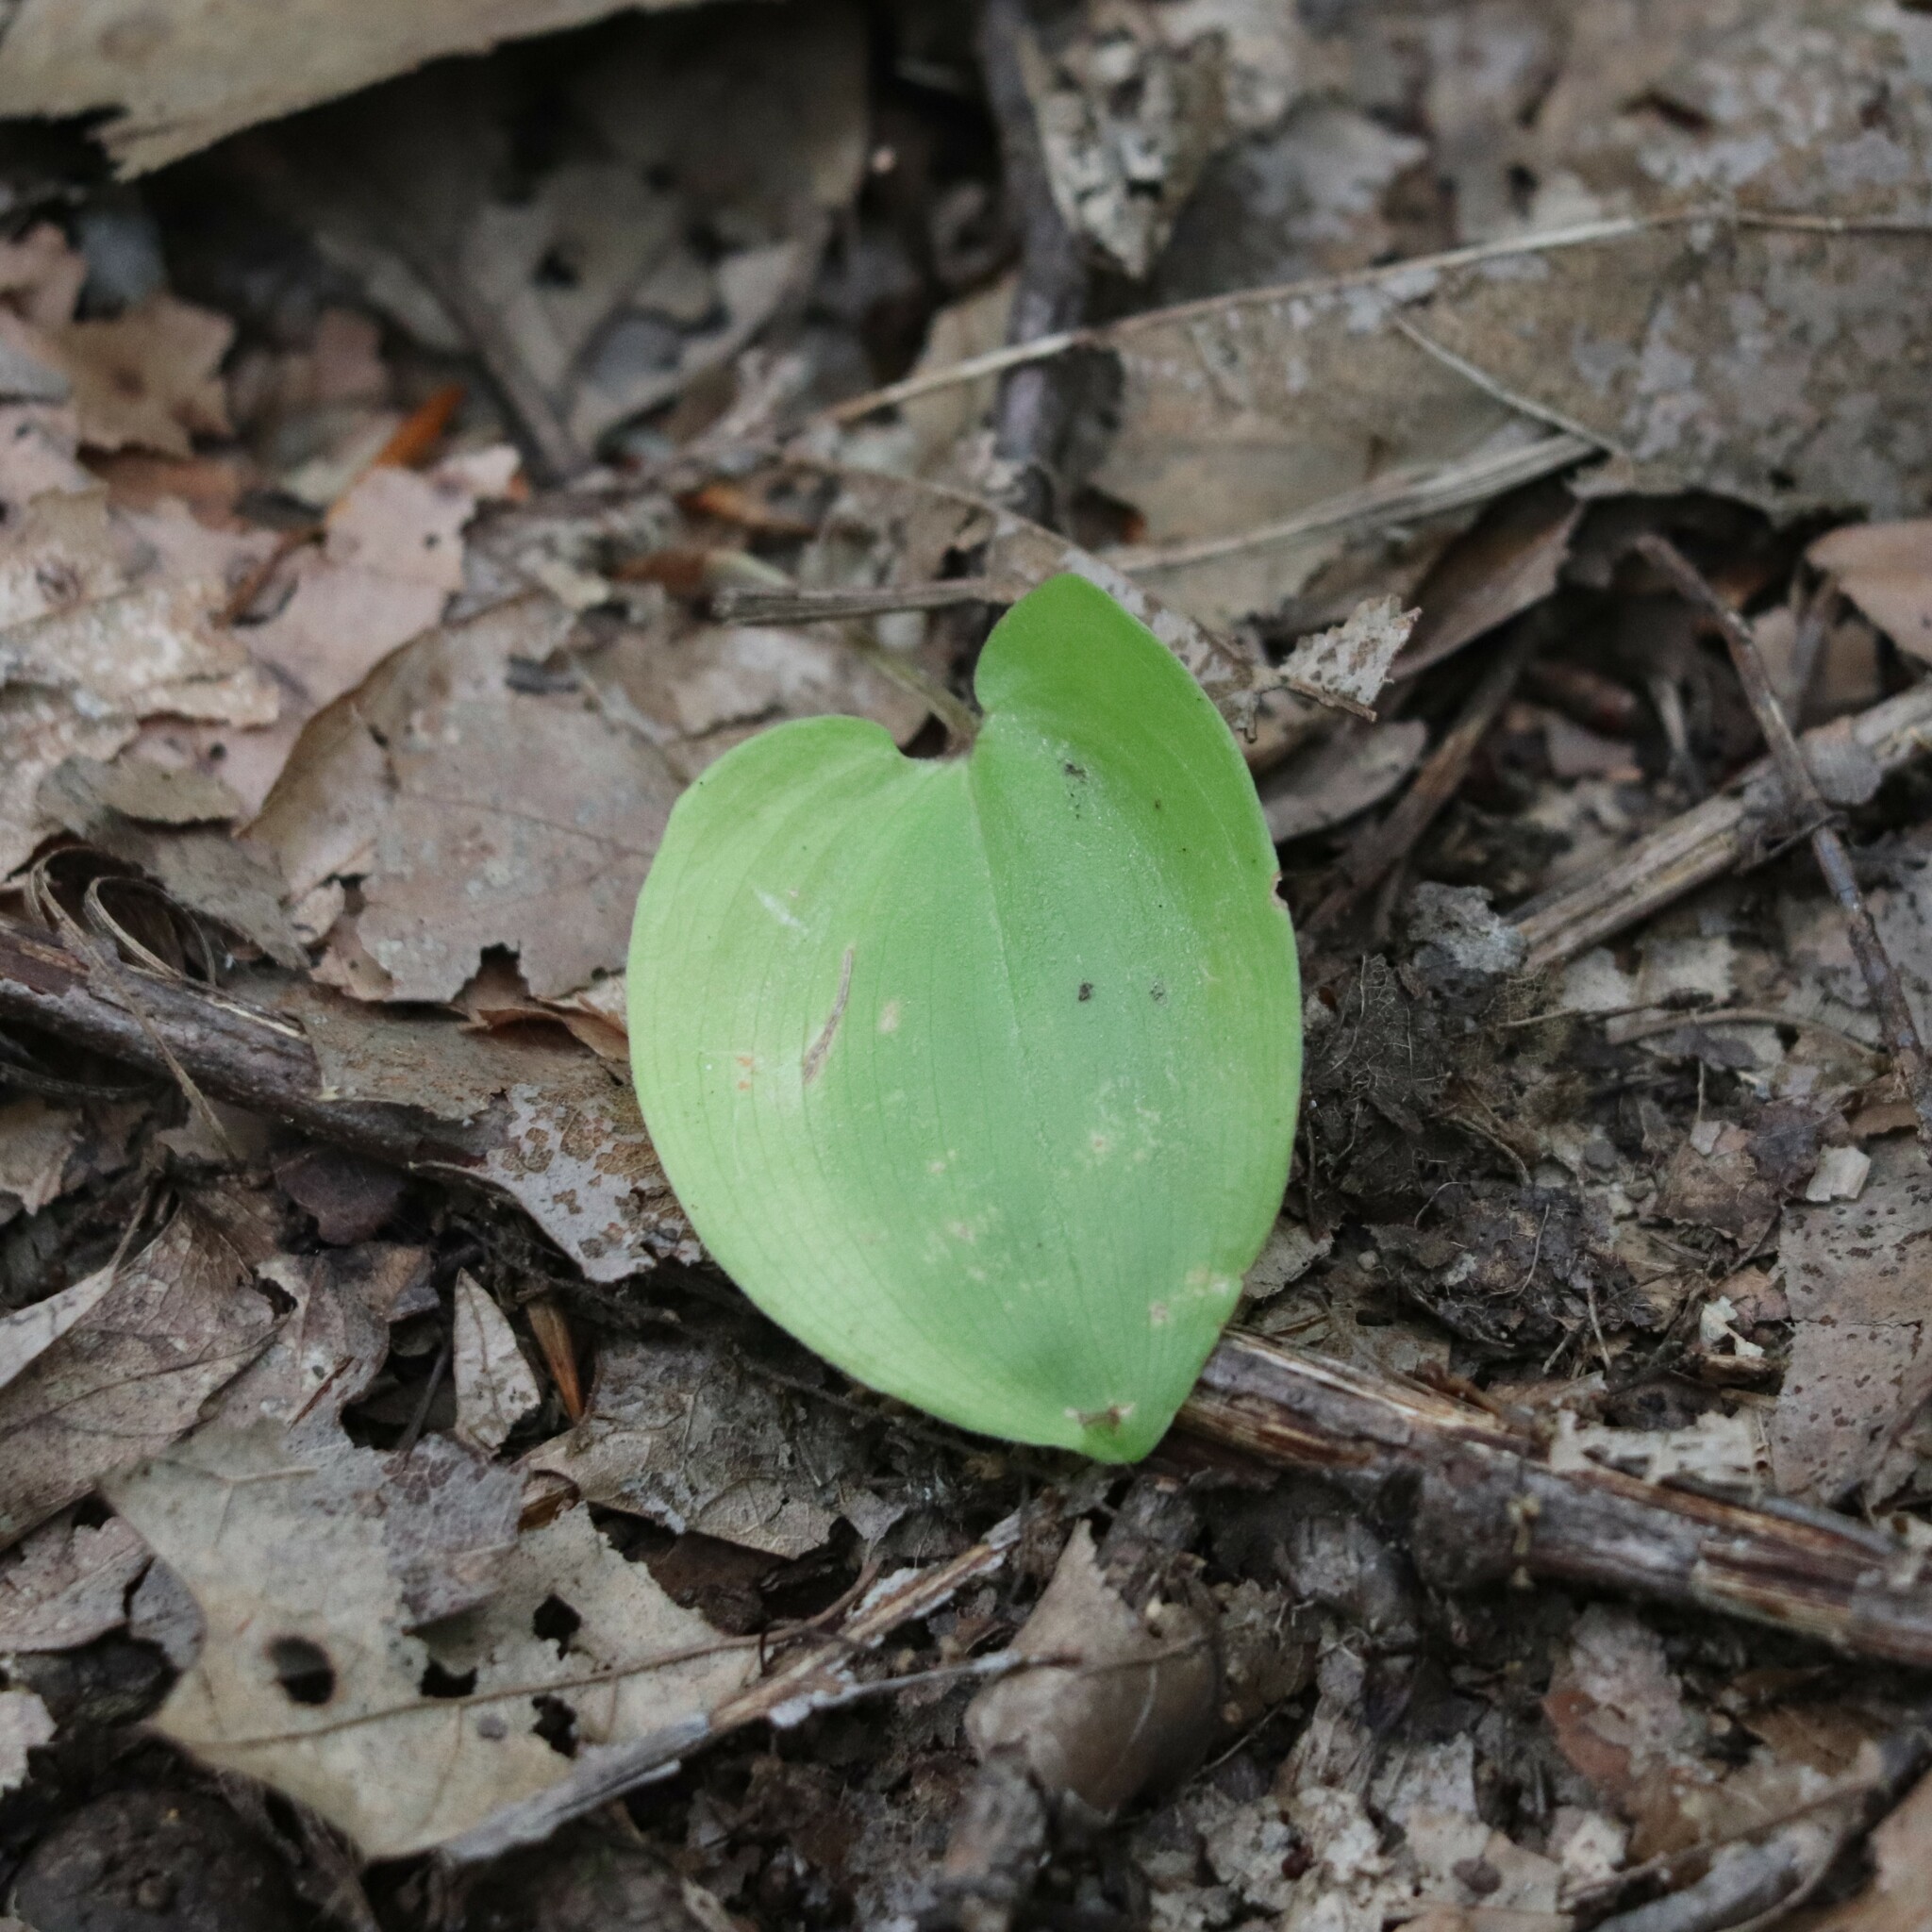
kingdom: Plantae
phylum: Tracheophyta
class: Liliopsida
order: Asparagales
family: Asparagaceae
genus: Maianthemum
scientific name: Maianthemum canadense
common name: False lily-of-the-valley
